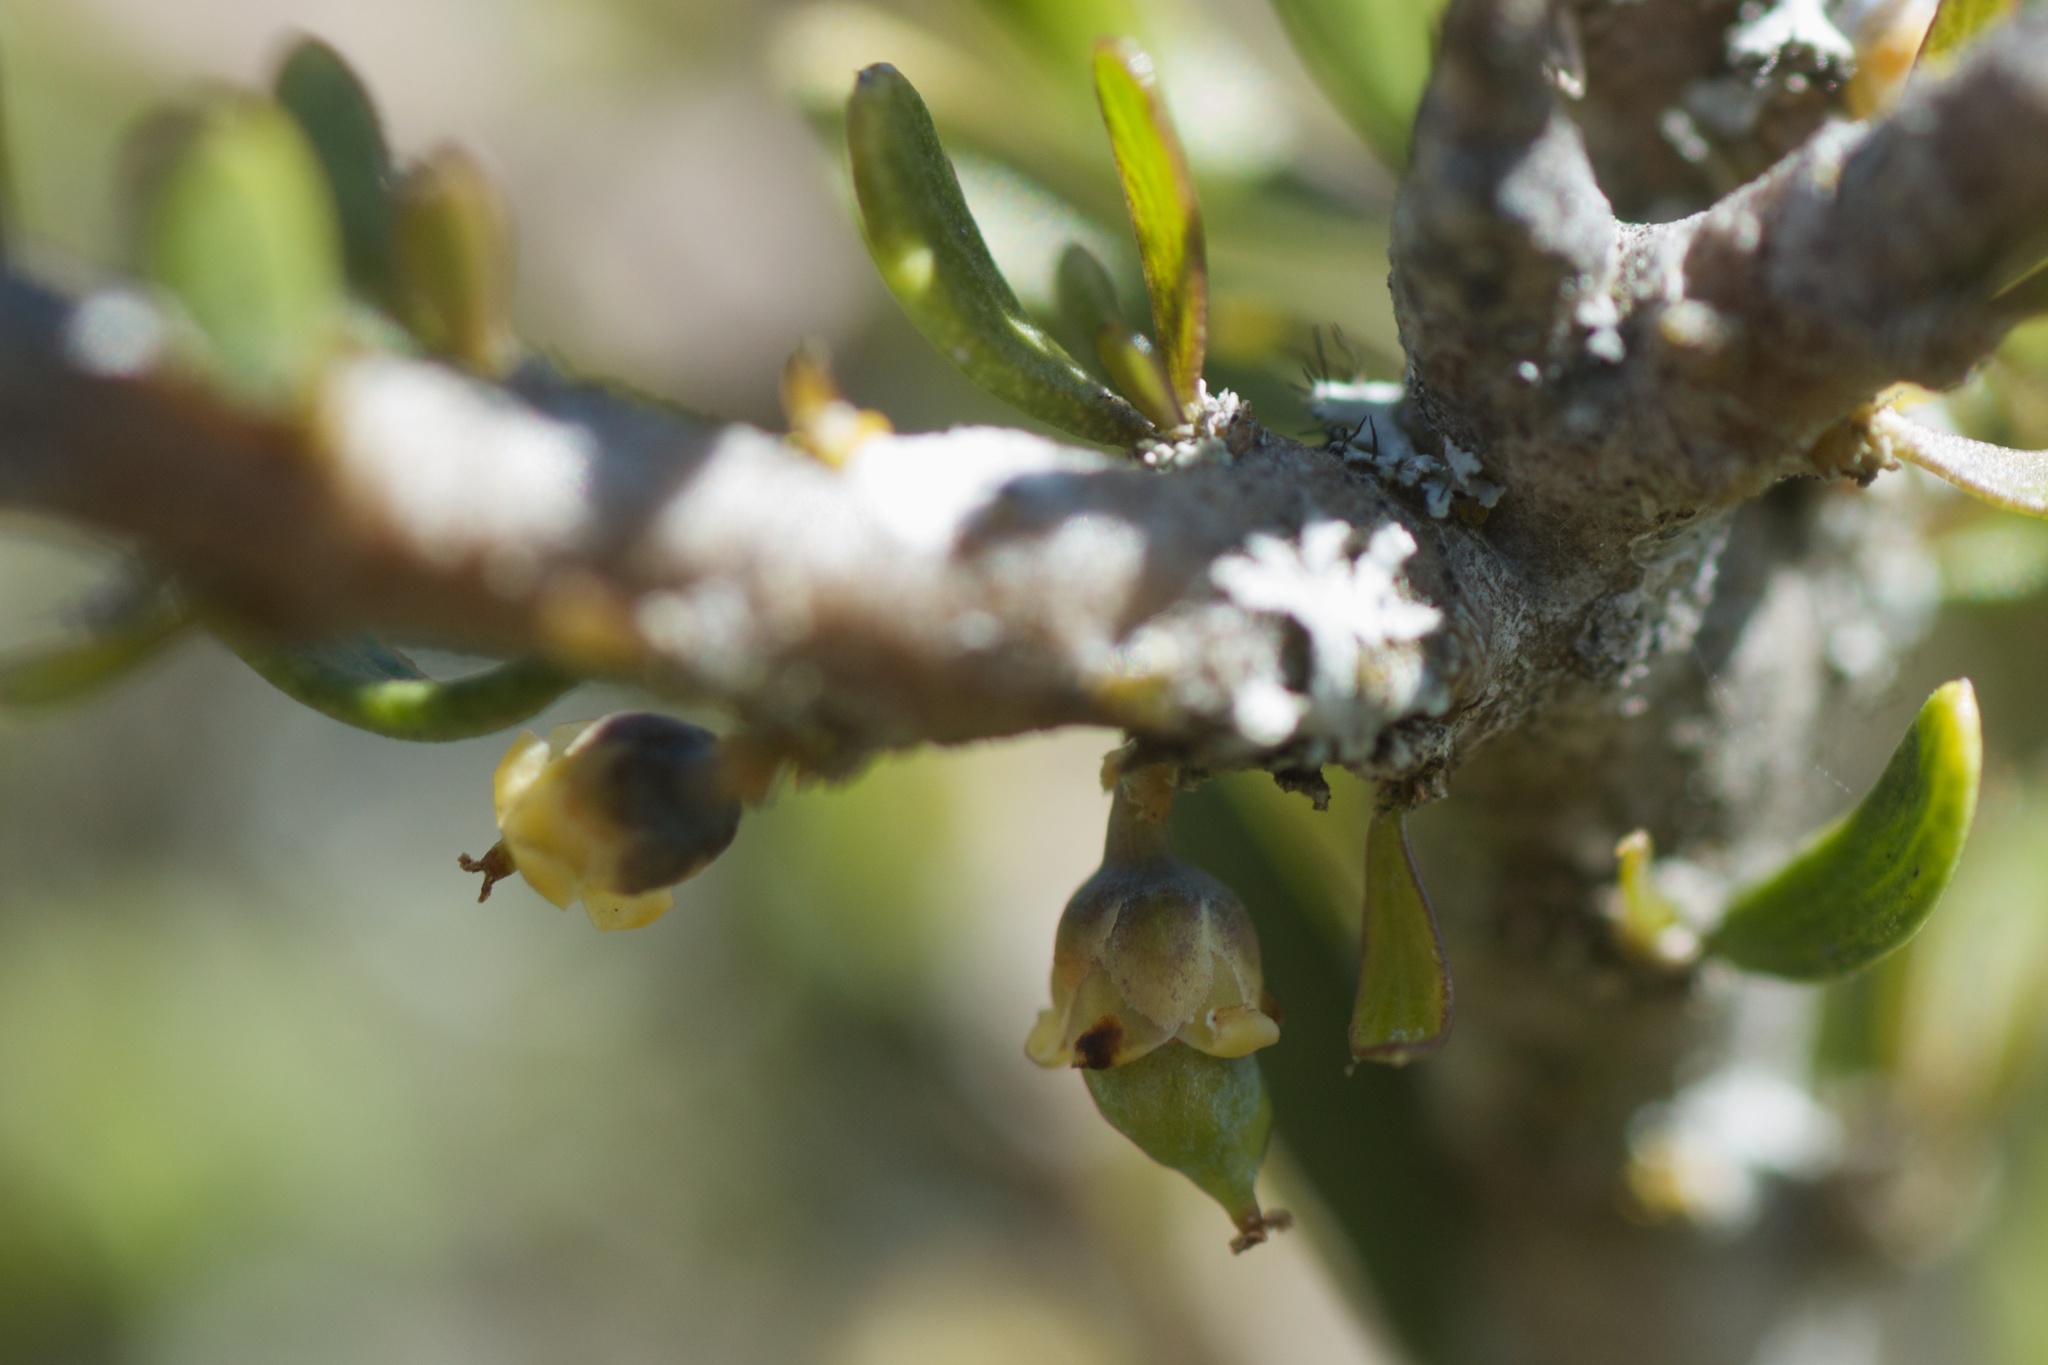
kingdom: Plantae
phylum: Tracheophyta
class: Magnoliopsida
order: Malpighiales
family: Violaceae
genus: Melicytus
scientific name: Melicytus alpinus
